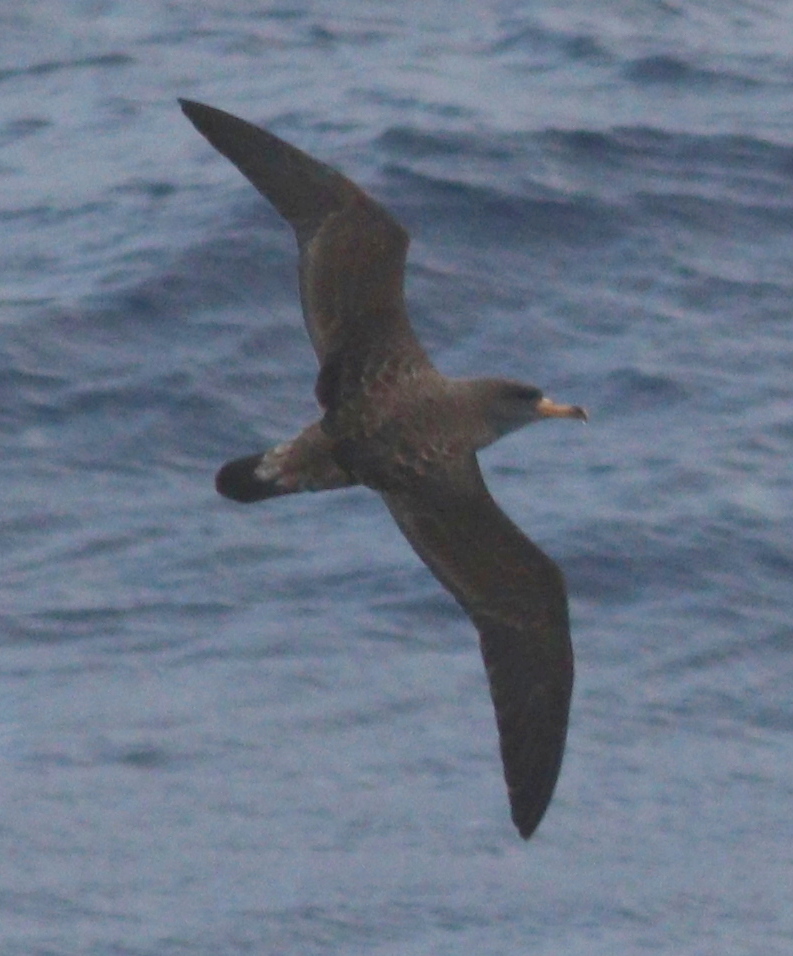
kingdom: Animalia
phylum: Chordata
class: Aves
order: Procellariiformes
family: Procellariidae
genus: Calonectris
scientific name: Calonectris diomedea
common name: Cory's shearwater
